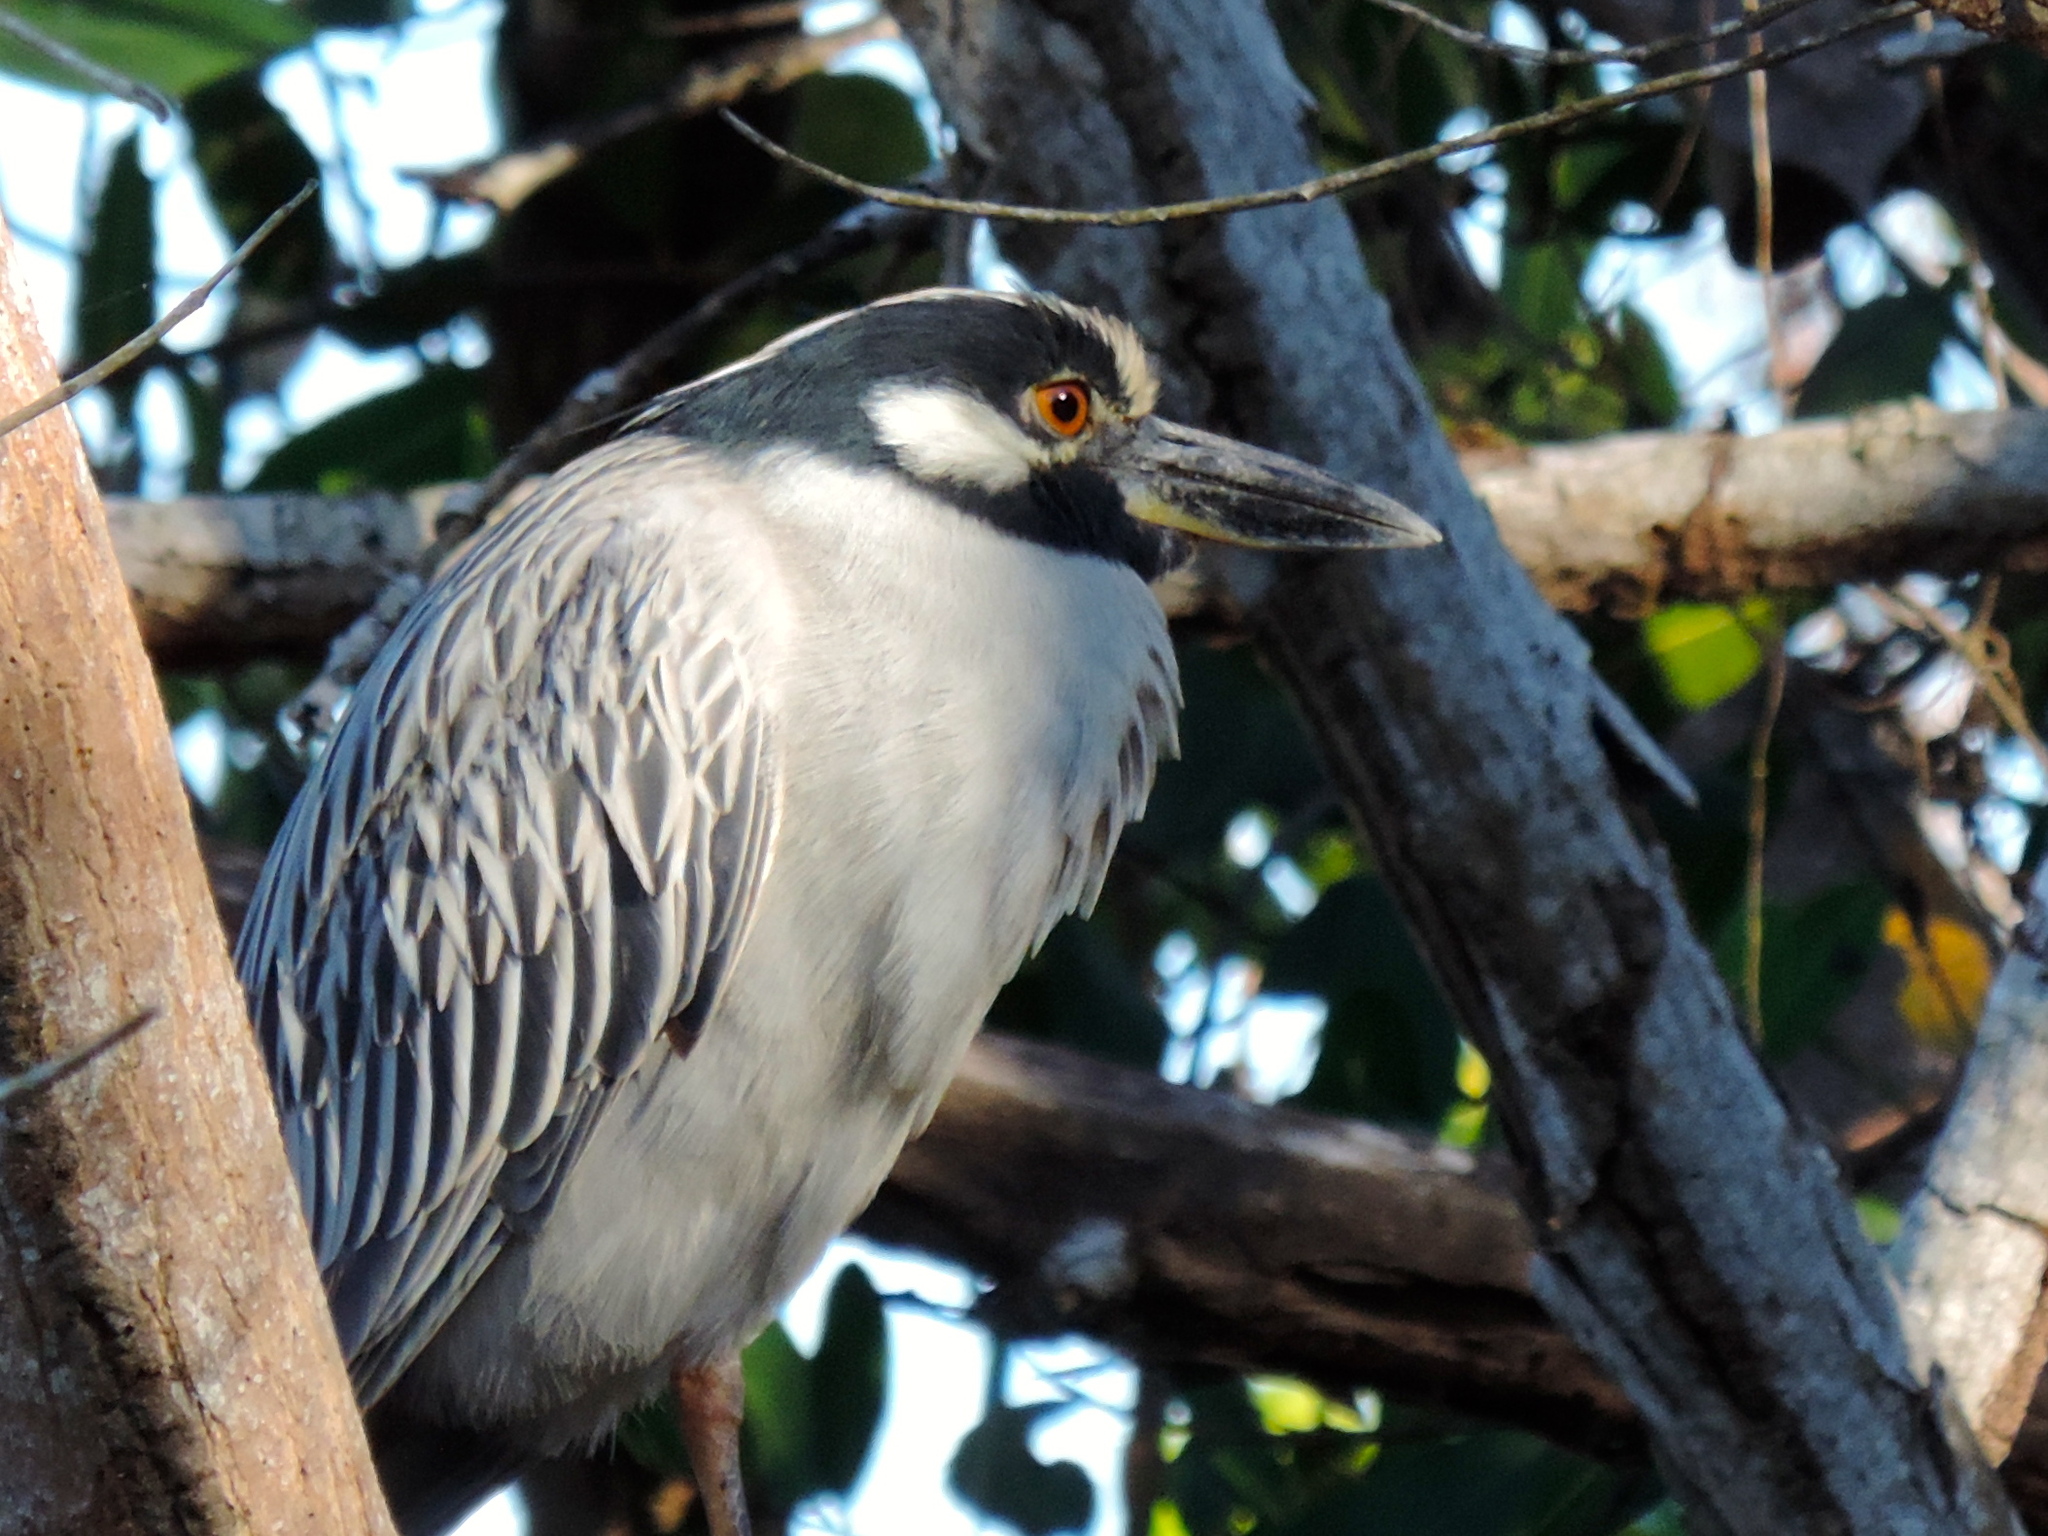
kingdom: Animalia
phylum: Chordata
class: Aves
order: Pelecaniformes
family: Ardeidae
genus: Nyctanassa
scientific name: Nyctanassa violacea
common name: Yellow-crowned night heron
